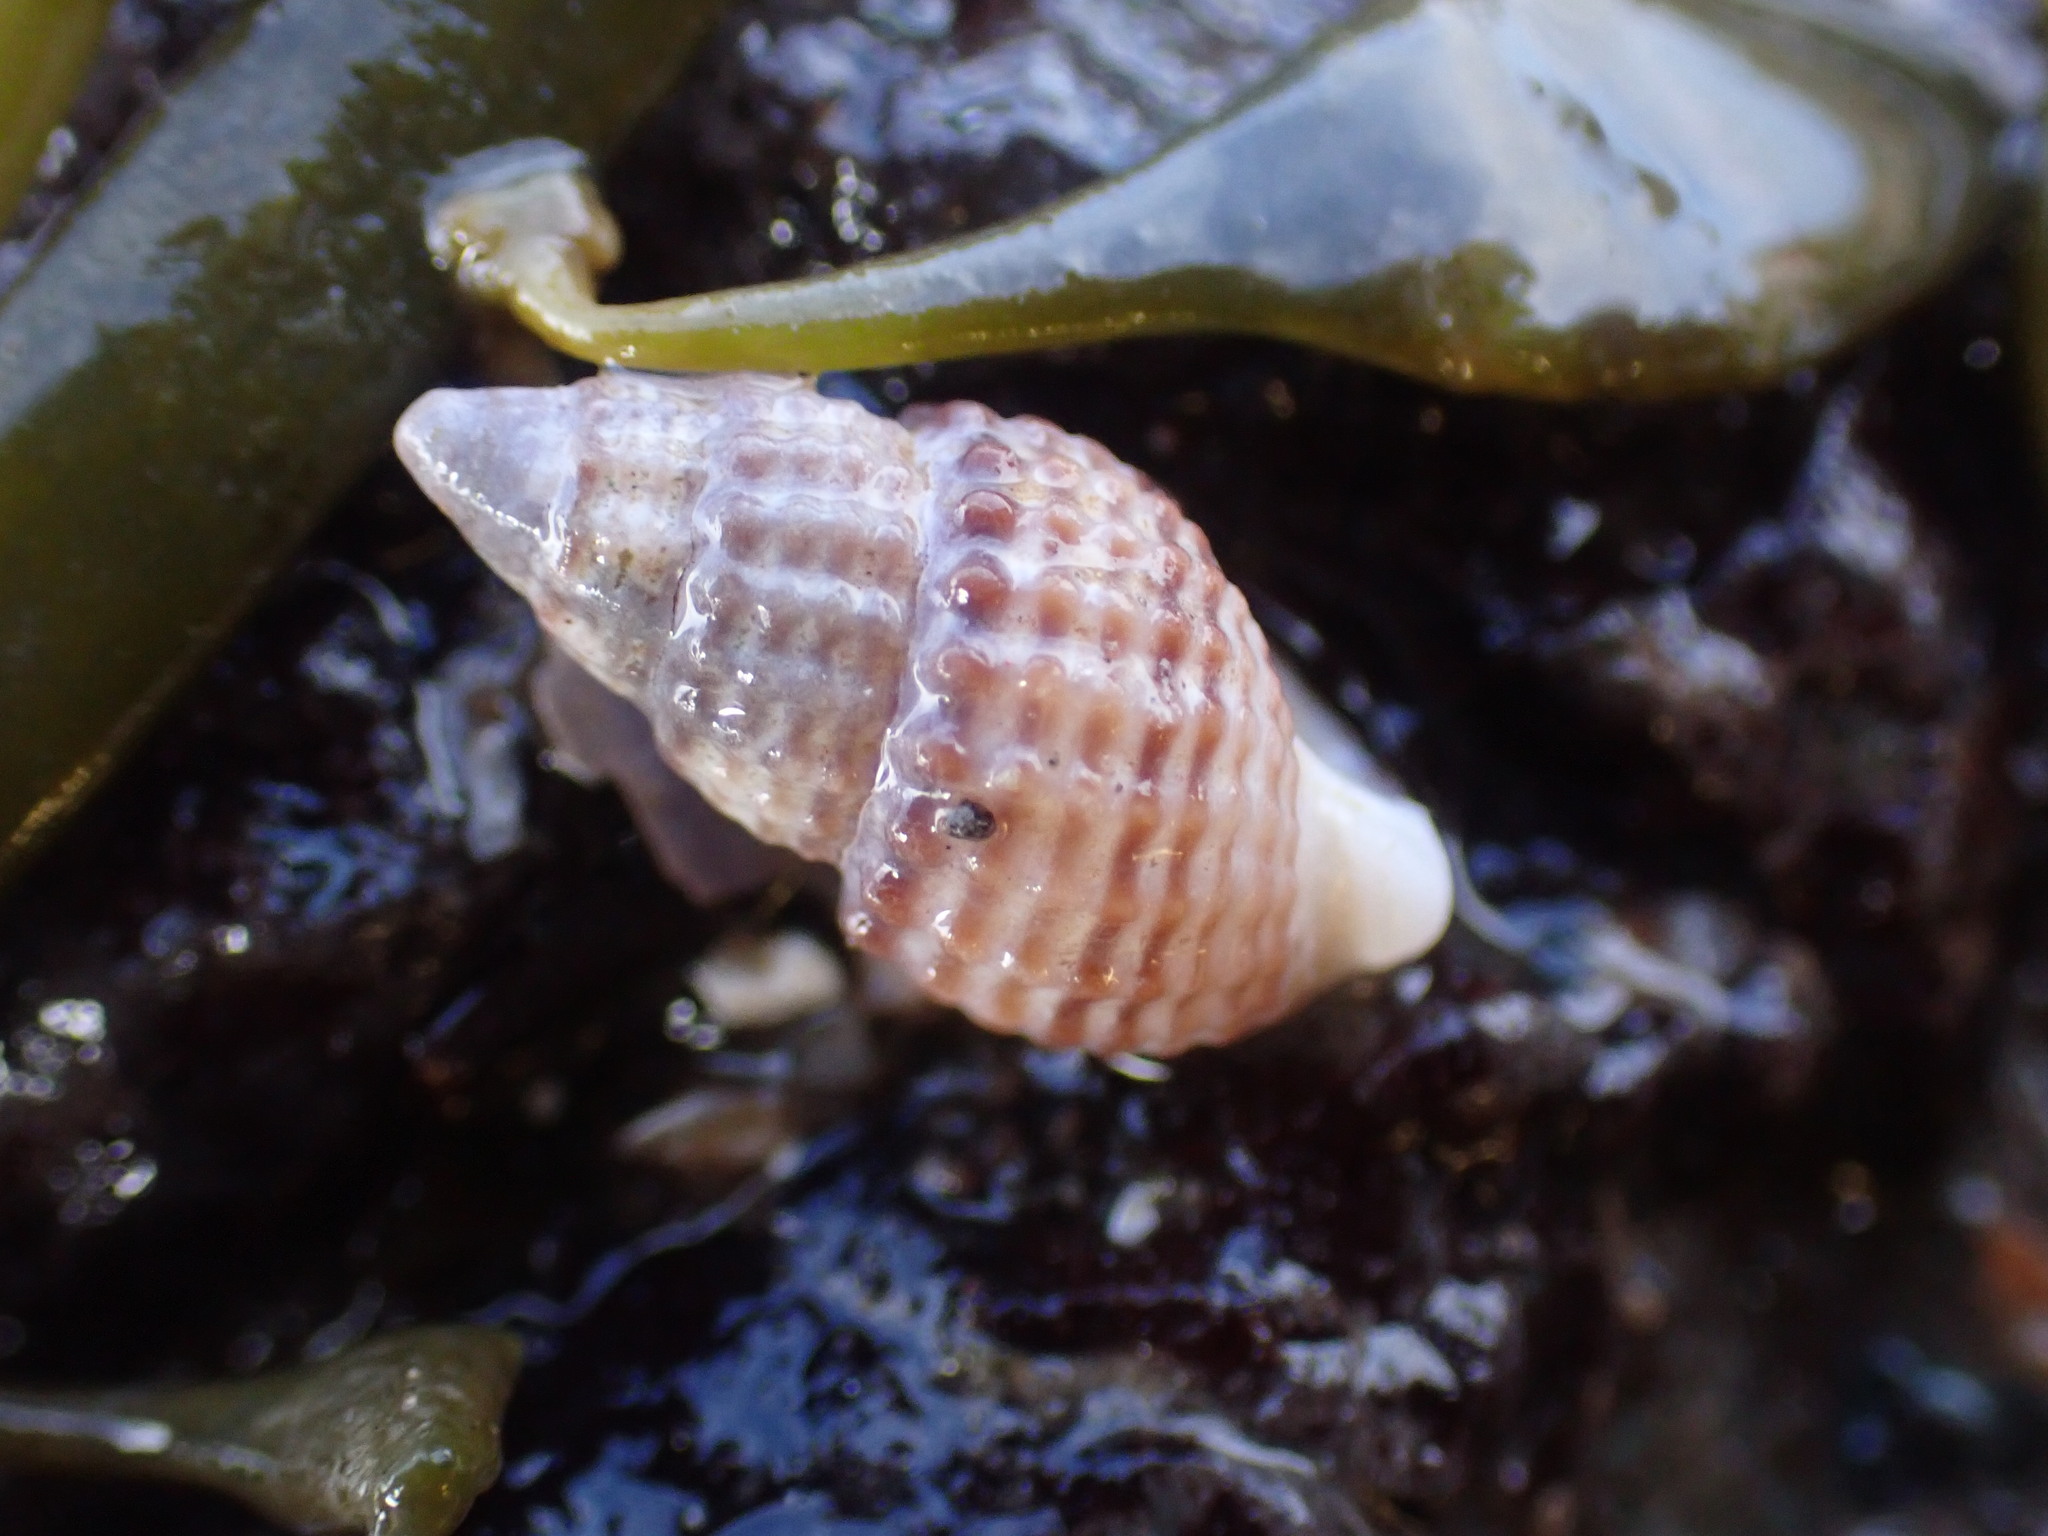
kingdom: Animalia
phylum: Mollusca
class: Gastropoda
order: Neogastropoda
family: Nassariidae
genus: Ilyanassa
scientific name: Ilyanassa trivittata
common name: Three-line mudsnail
